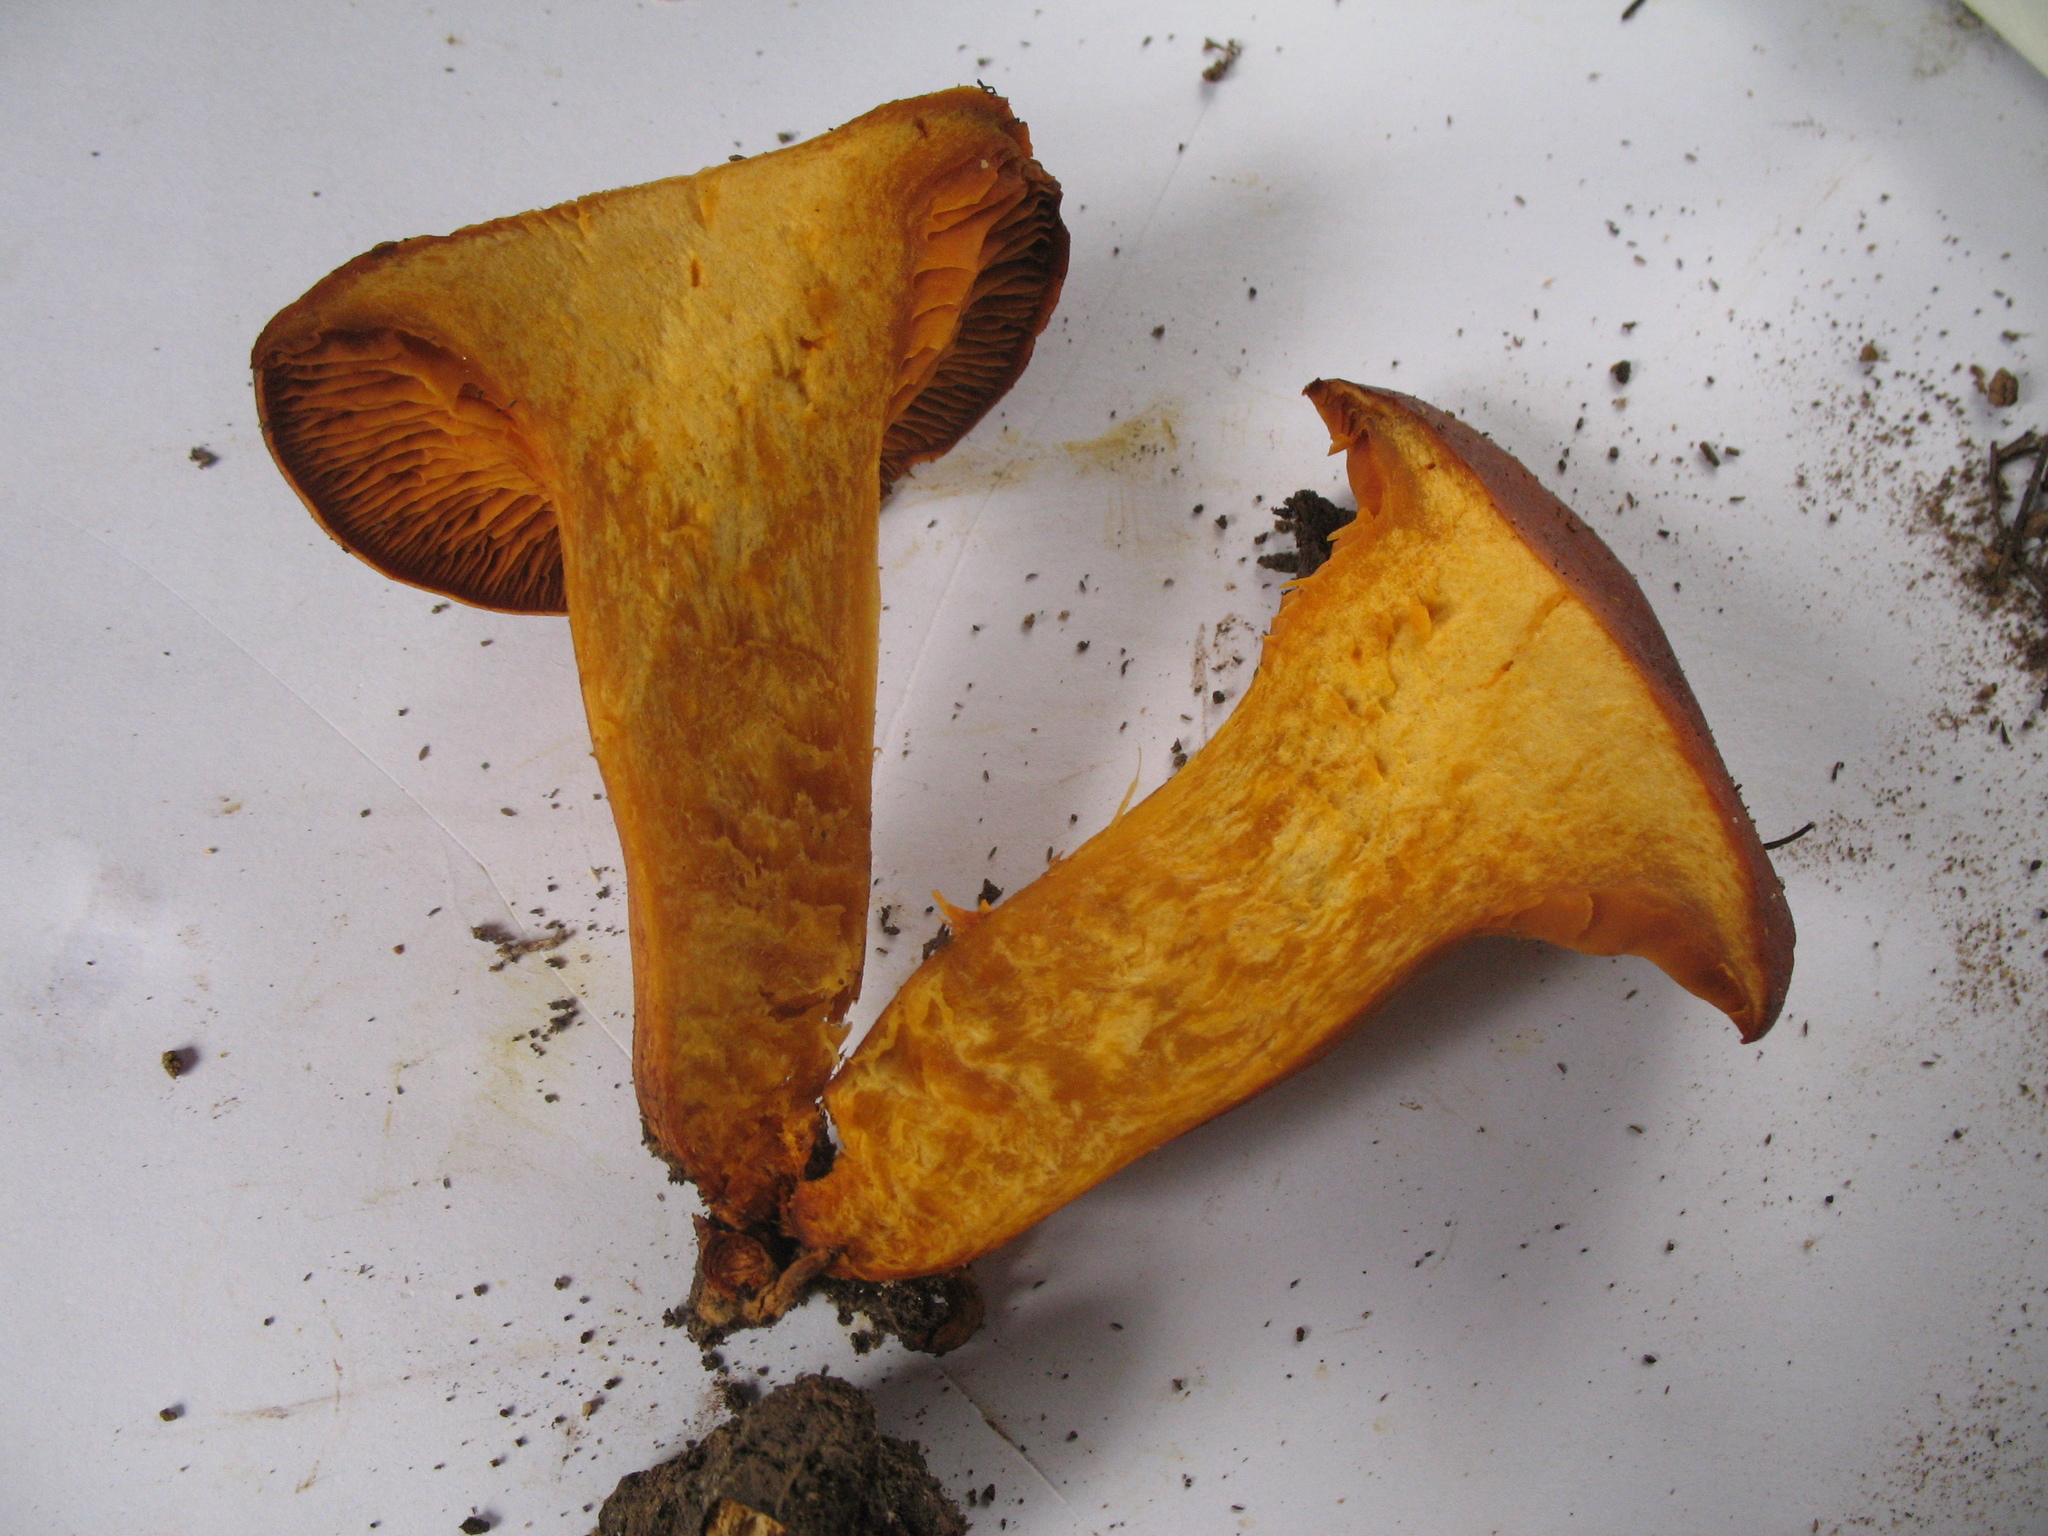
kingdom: Fungi
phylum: Basidiomycota
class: Agaricomycetes
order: Agaricales
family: Omphalotaceae
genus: Omphalotus
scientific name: Omphalotus olearius
